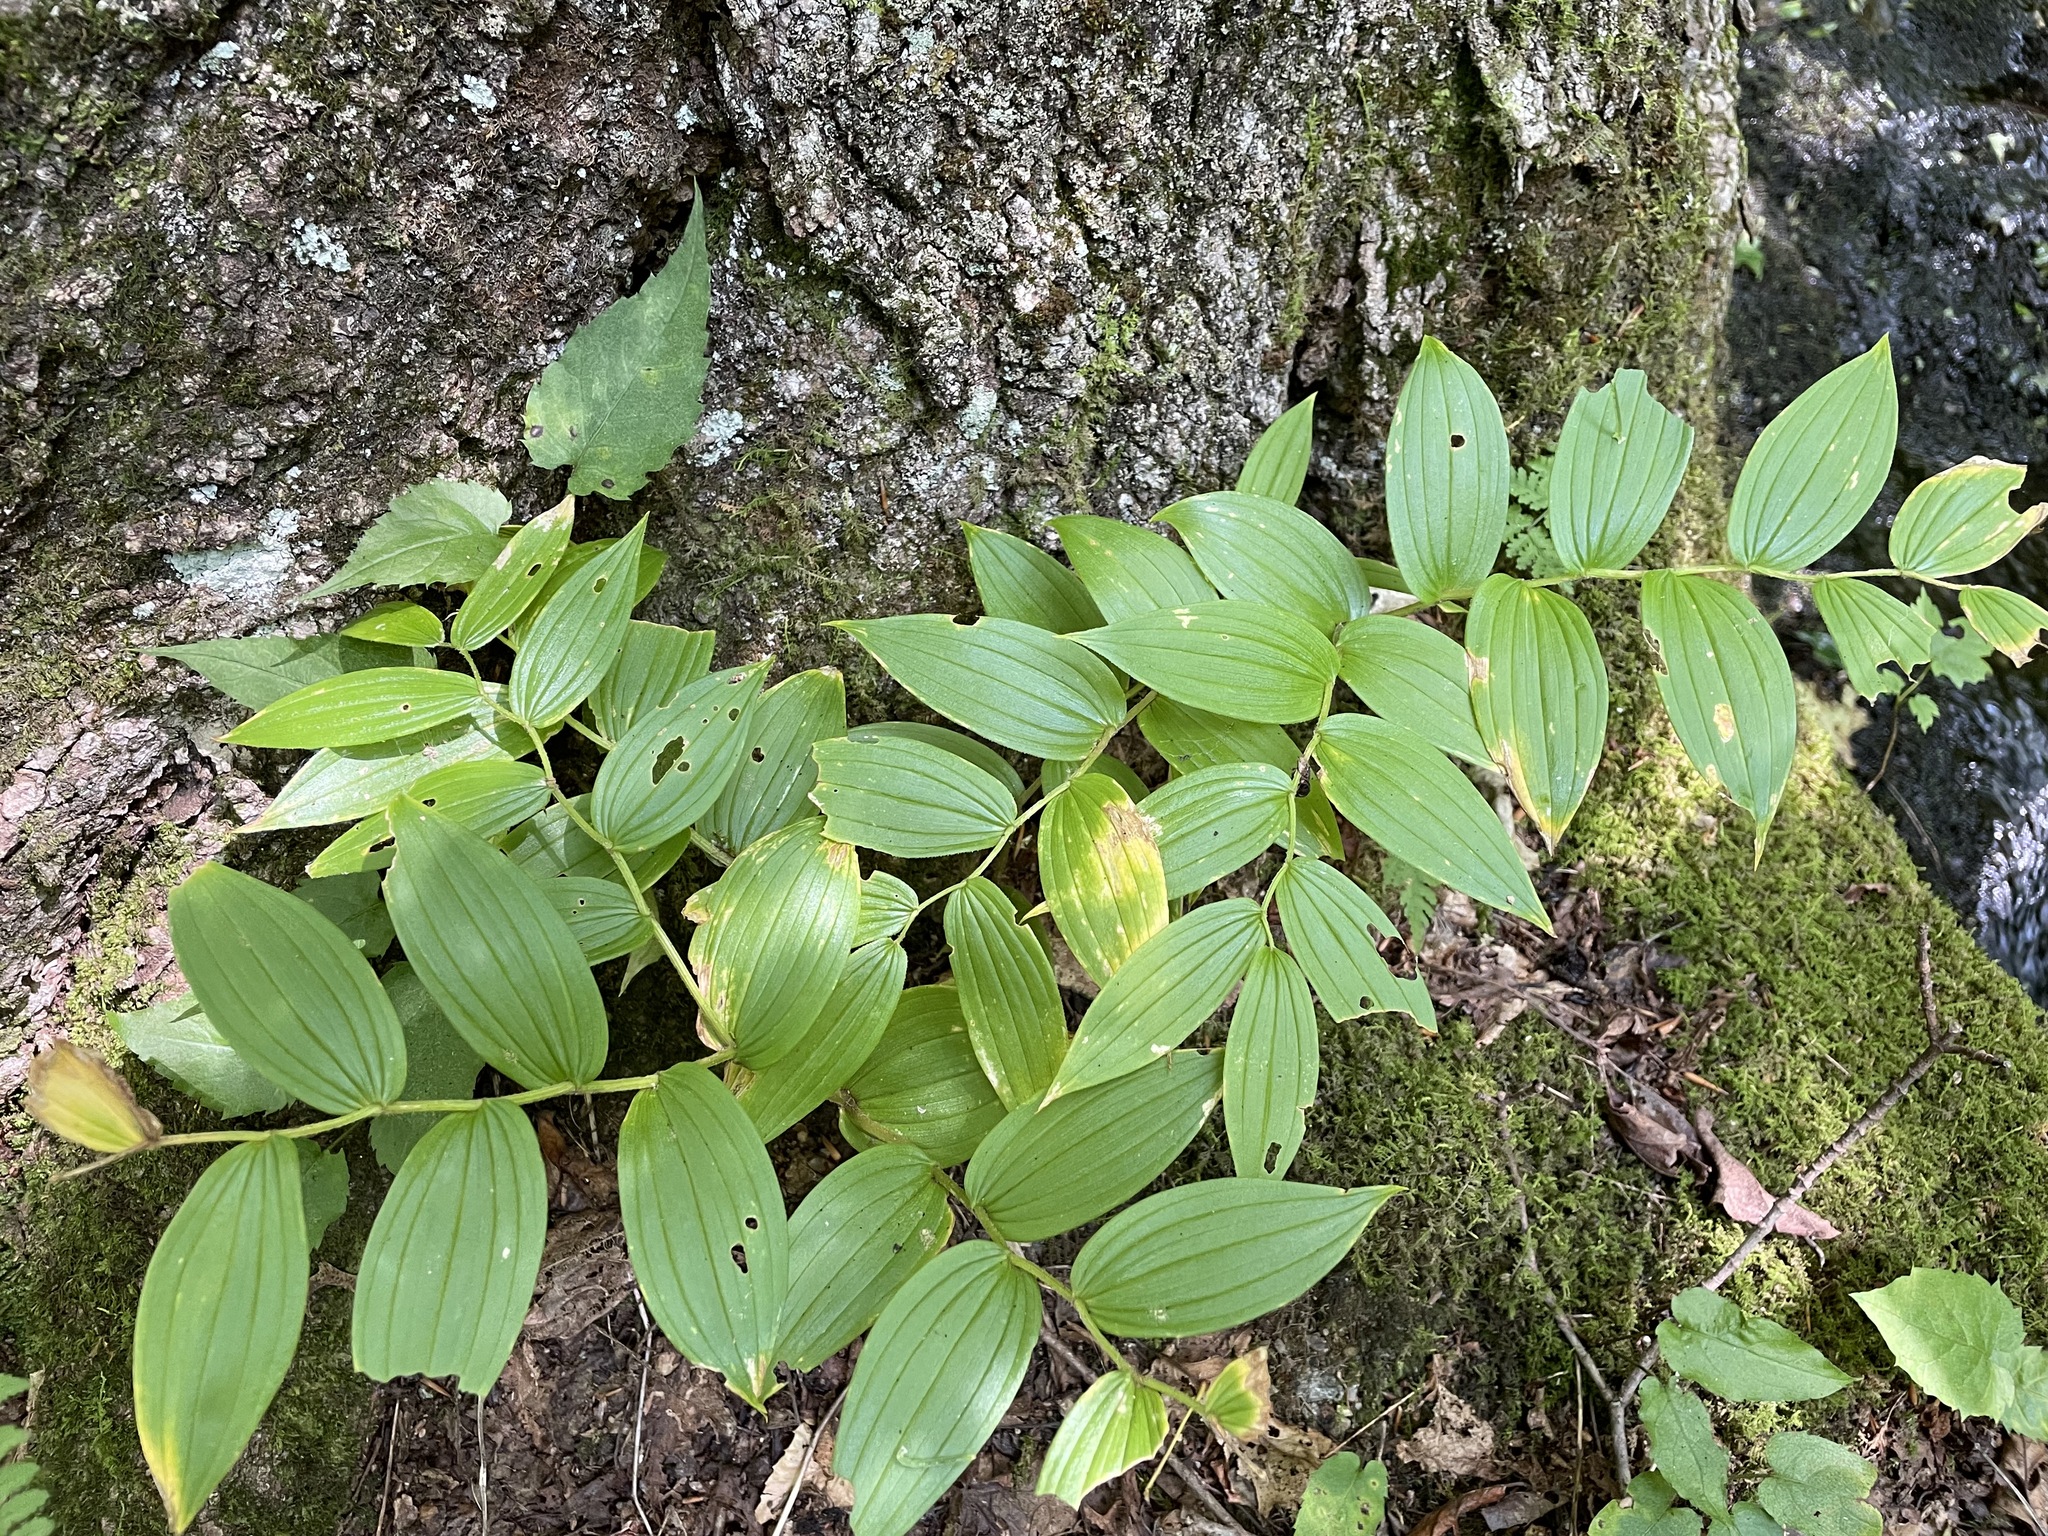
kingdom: Plantae
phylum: Tracheophyta
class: Liliopsida
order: Liliales
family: Liliaceae
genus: Streptopus
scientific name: Streptopus lanceolatus
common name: Rose mandarin
